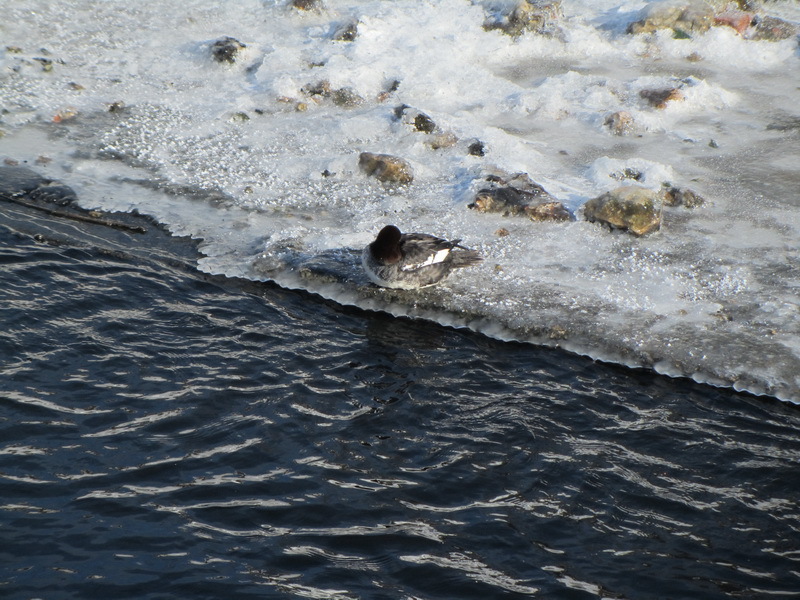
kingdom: Animalia
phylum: Chordata
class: Aves
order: Anseriformes
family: Anatidae
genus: Bucephala
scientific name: Bucephala clangula
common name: Common goldeneye
